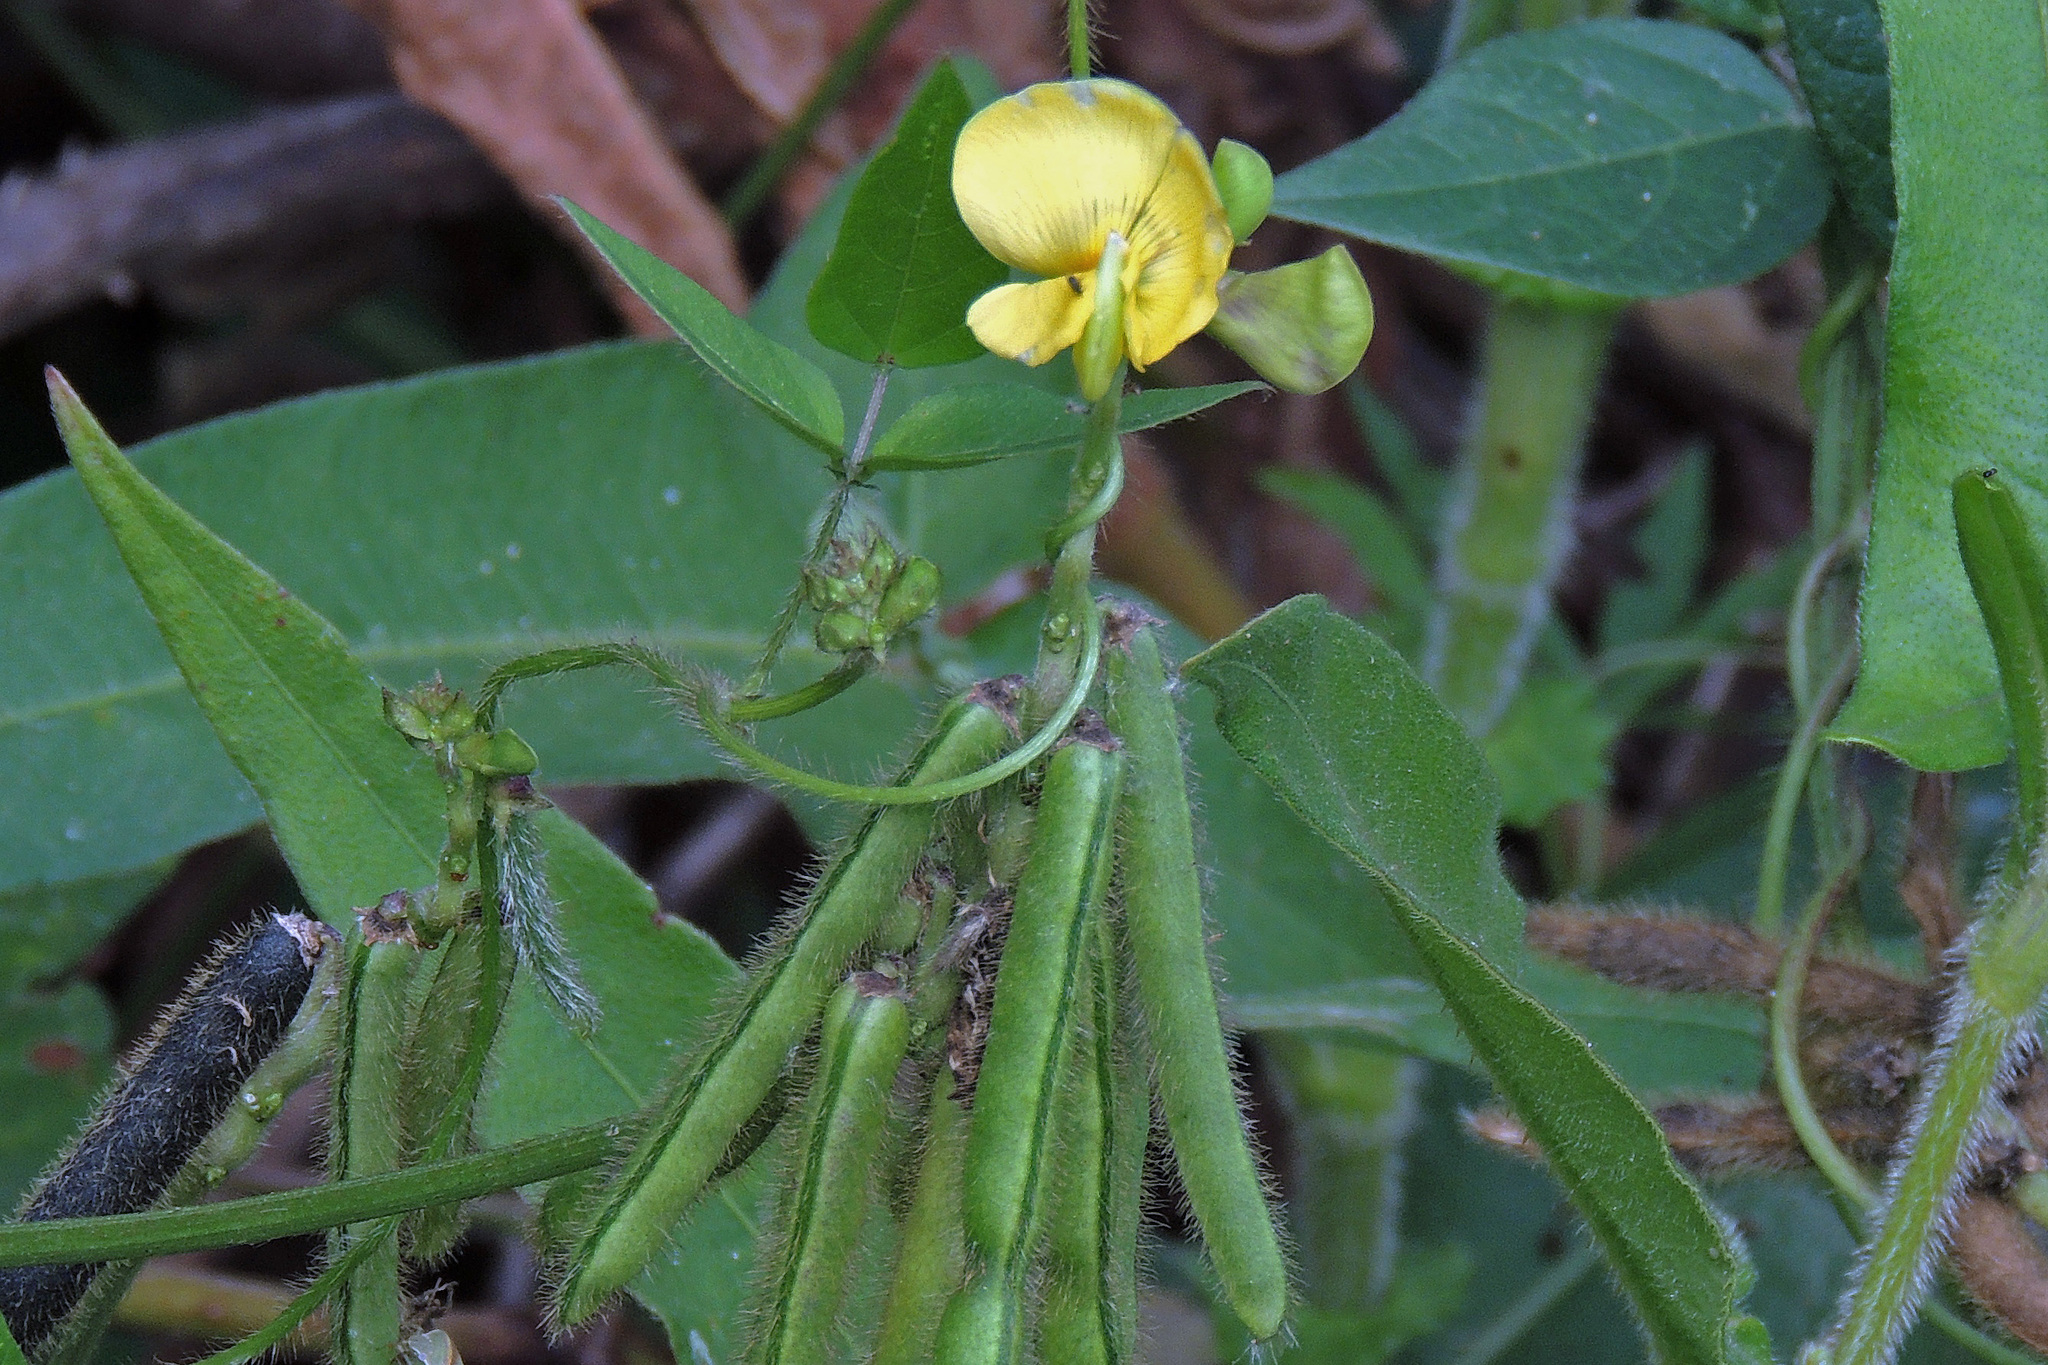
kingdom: Plantae
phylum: Tracheophyta
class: Magnoliopsida
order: Fabales
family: Fabaceae
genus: Vigna
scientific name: Vigna luteola
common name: Hairypod cowpea
